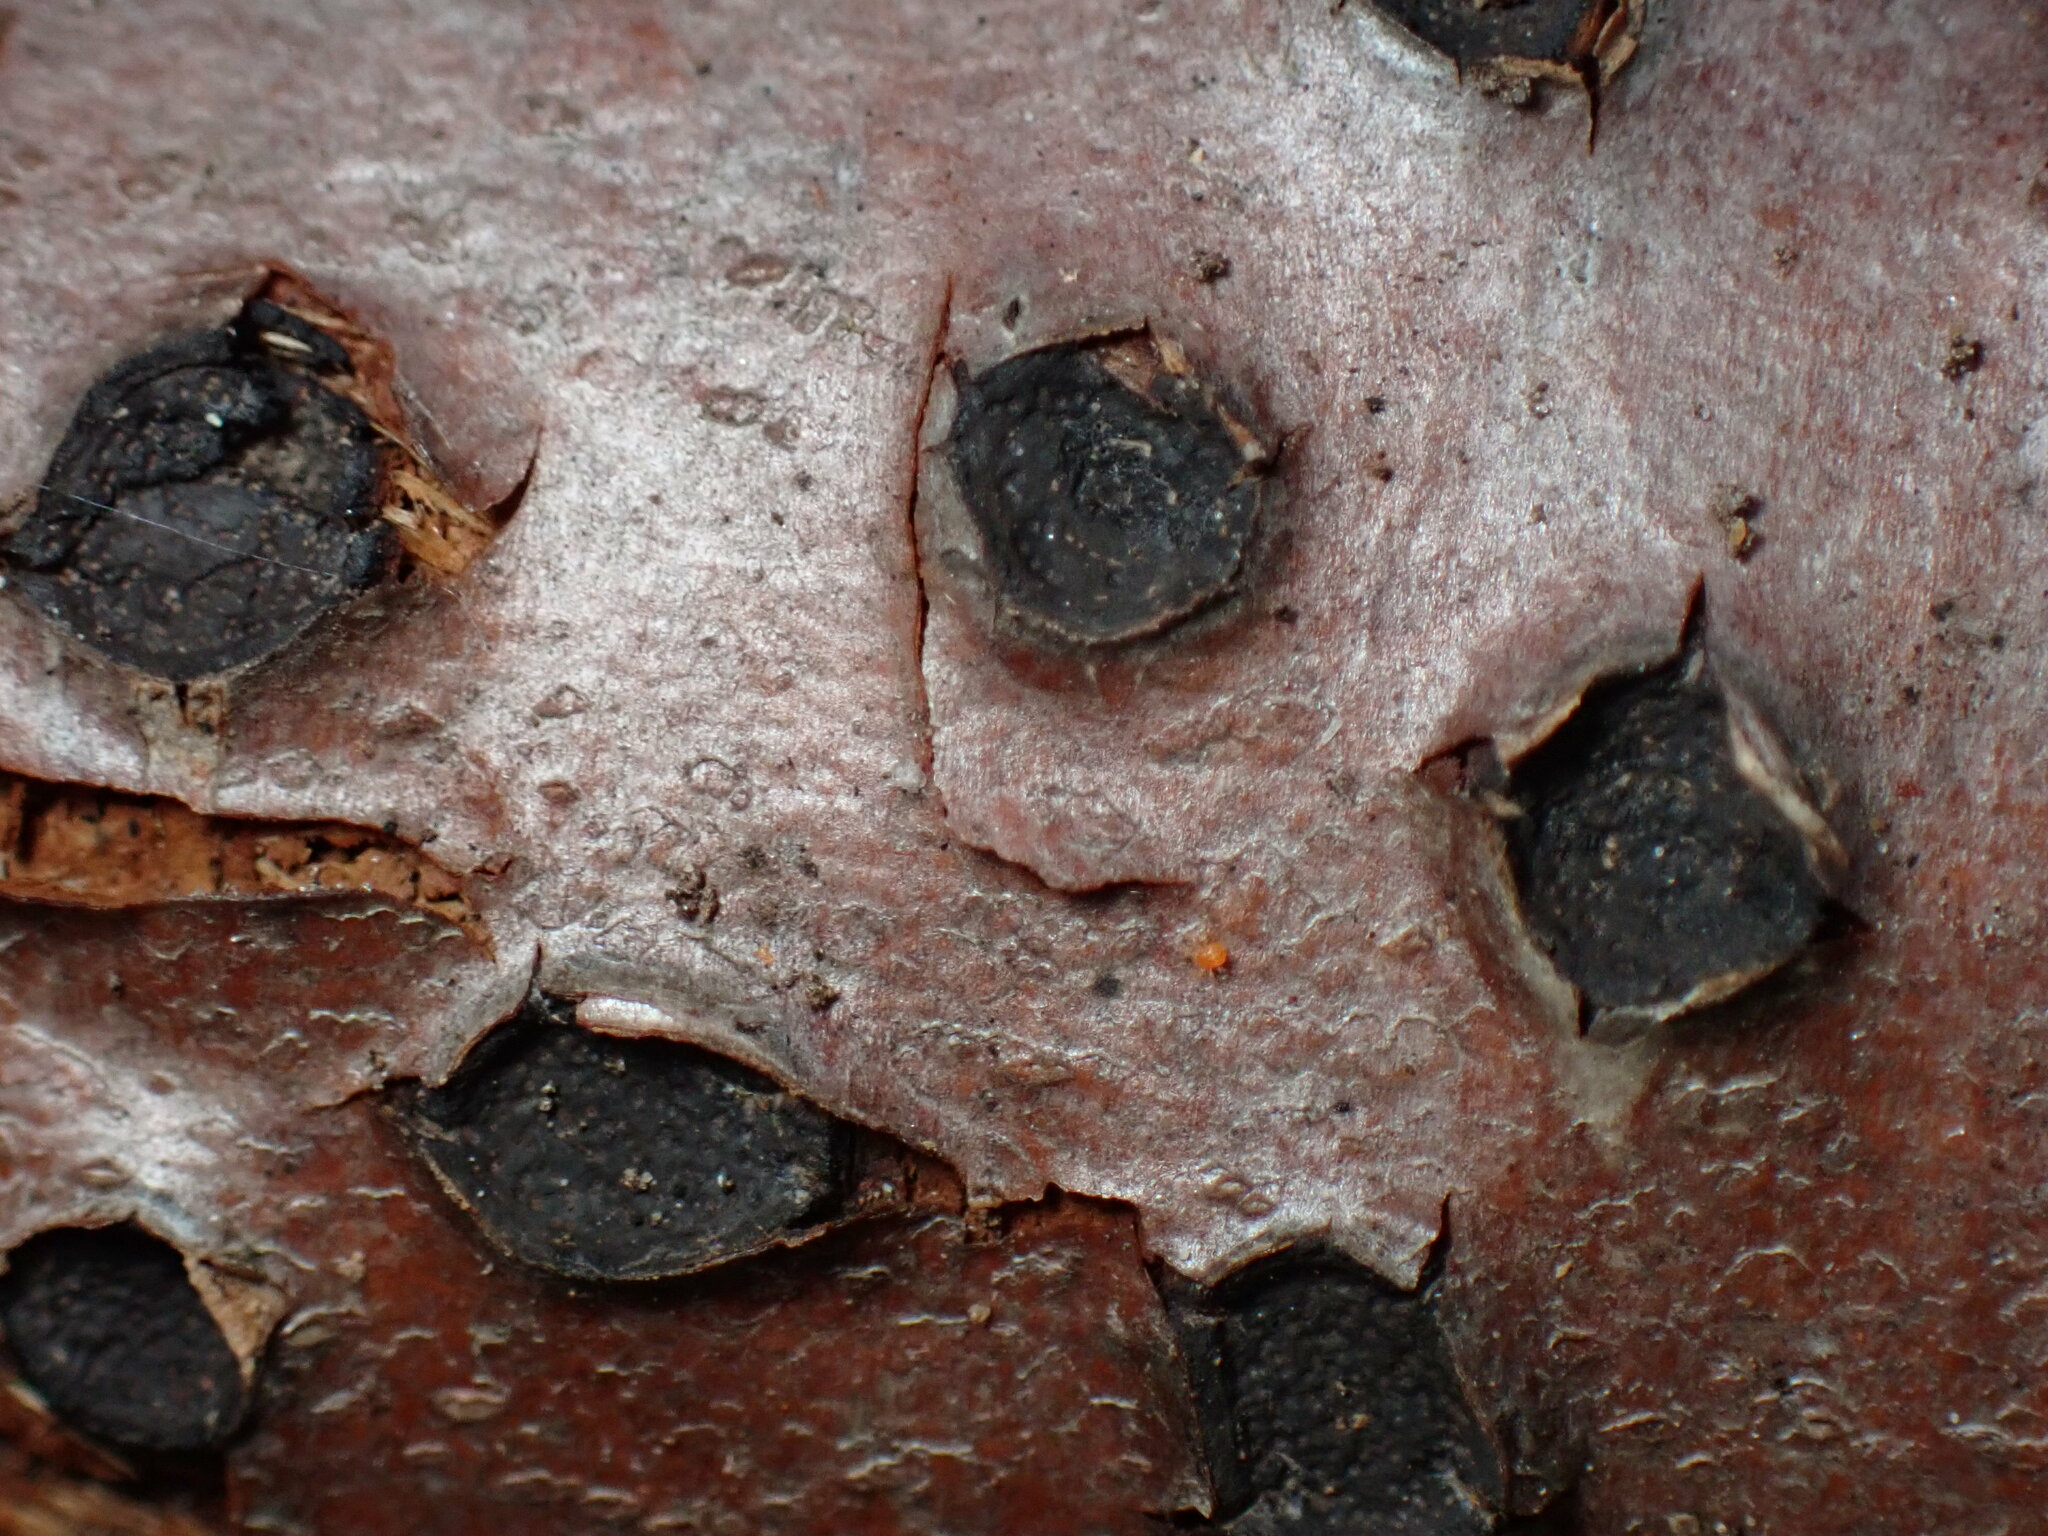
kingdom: Fungi
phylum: Ascomycota
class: Sordariomycetes
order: Xylariales
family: Graphostromataceae
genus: Biscogniauxia
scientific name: Biscogniauxia marginata
